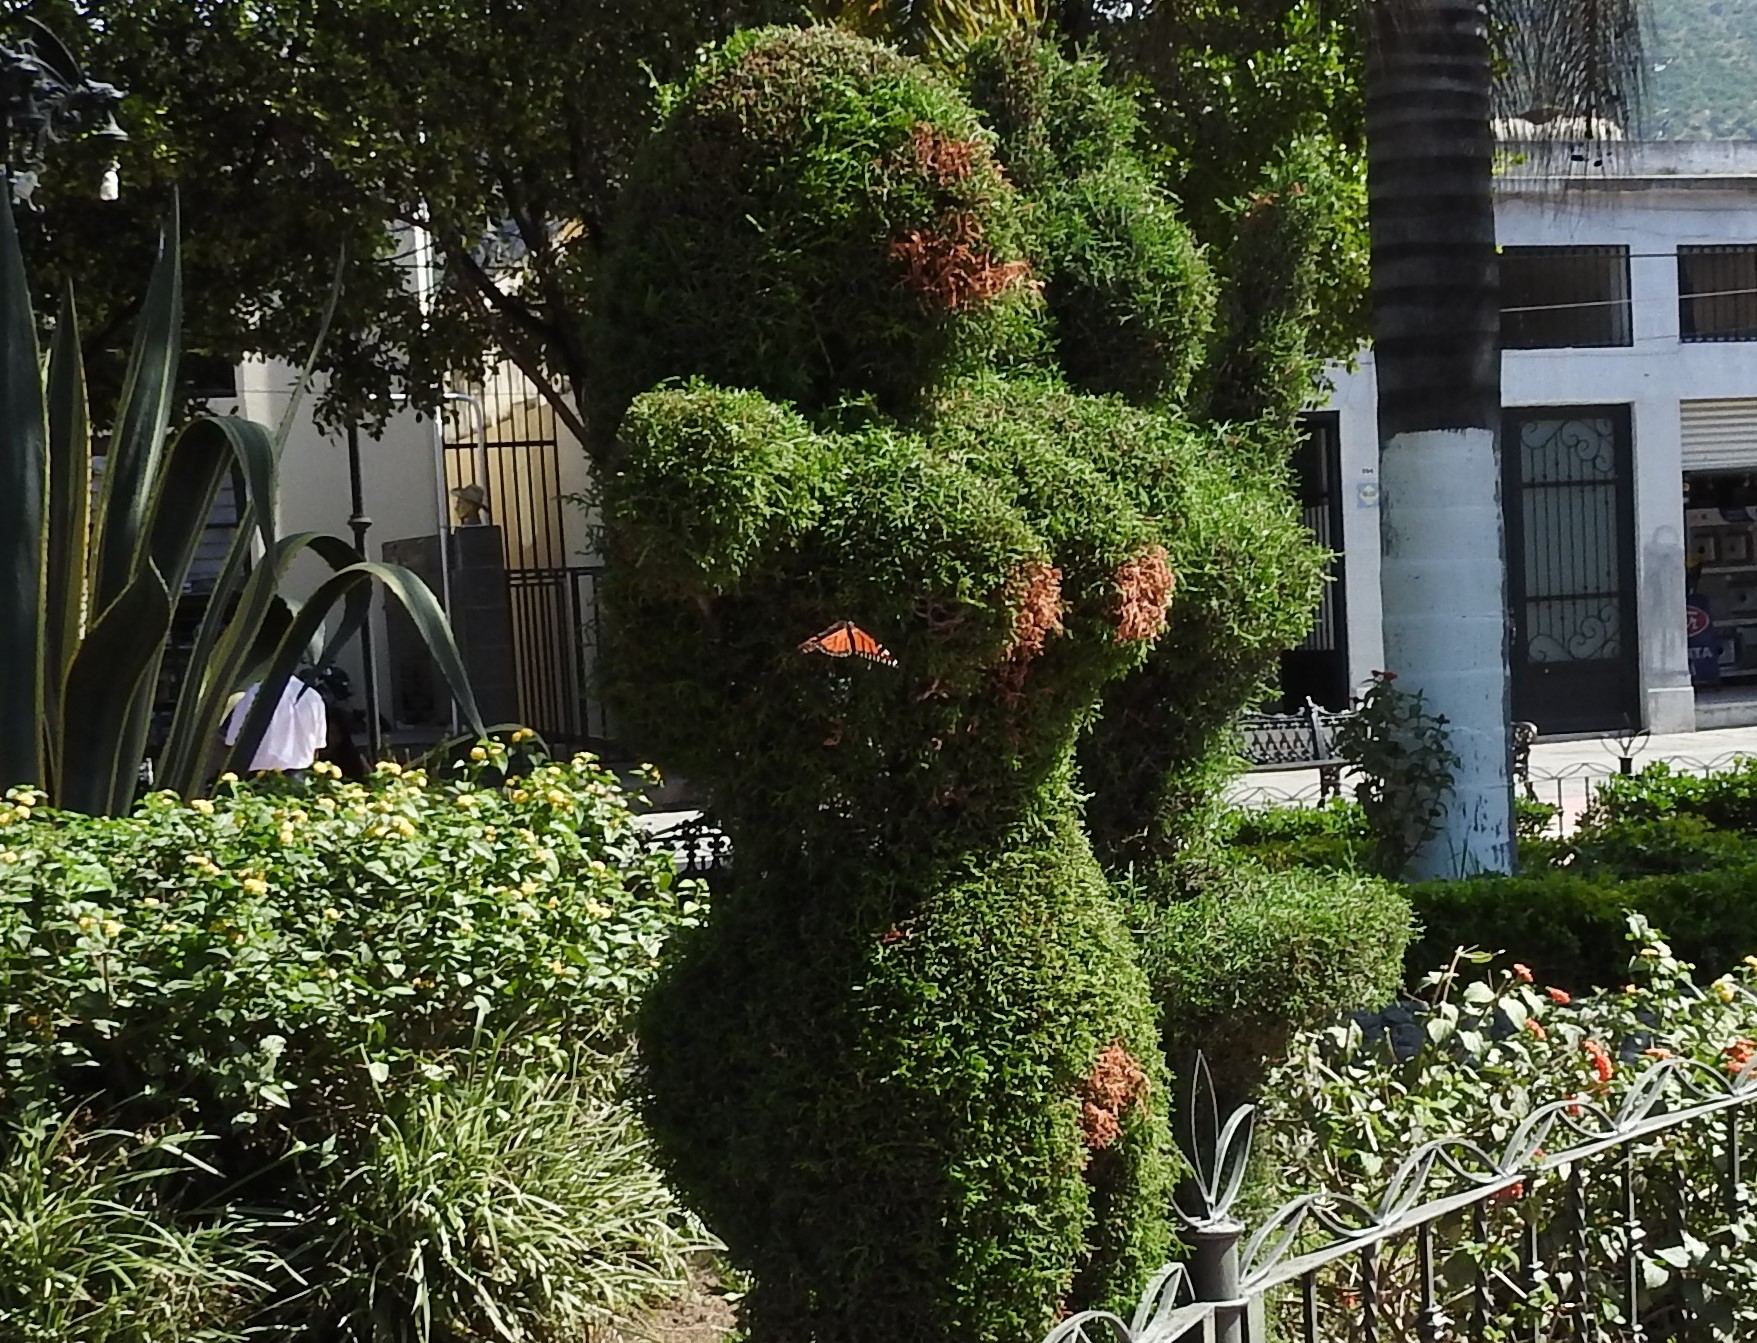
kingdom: Animalia
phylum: Arthropoda
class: Insecta
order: Lepidoptera
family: Nymphalidae
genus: Danaus
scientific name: Danaus plexippus
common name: Monarch
